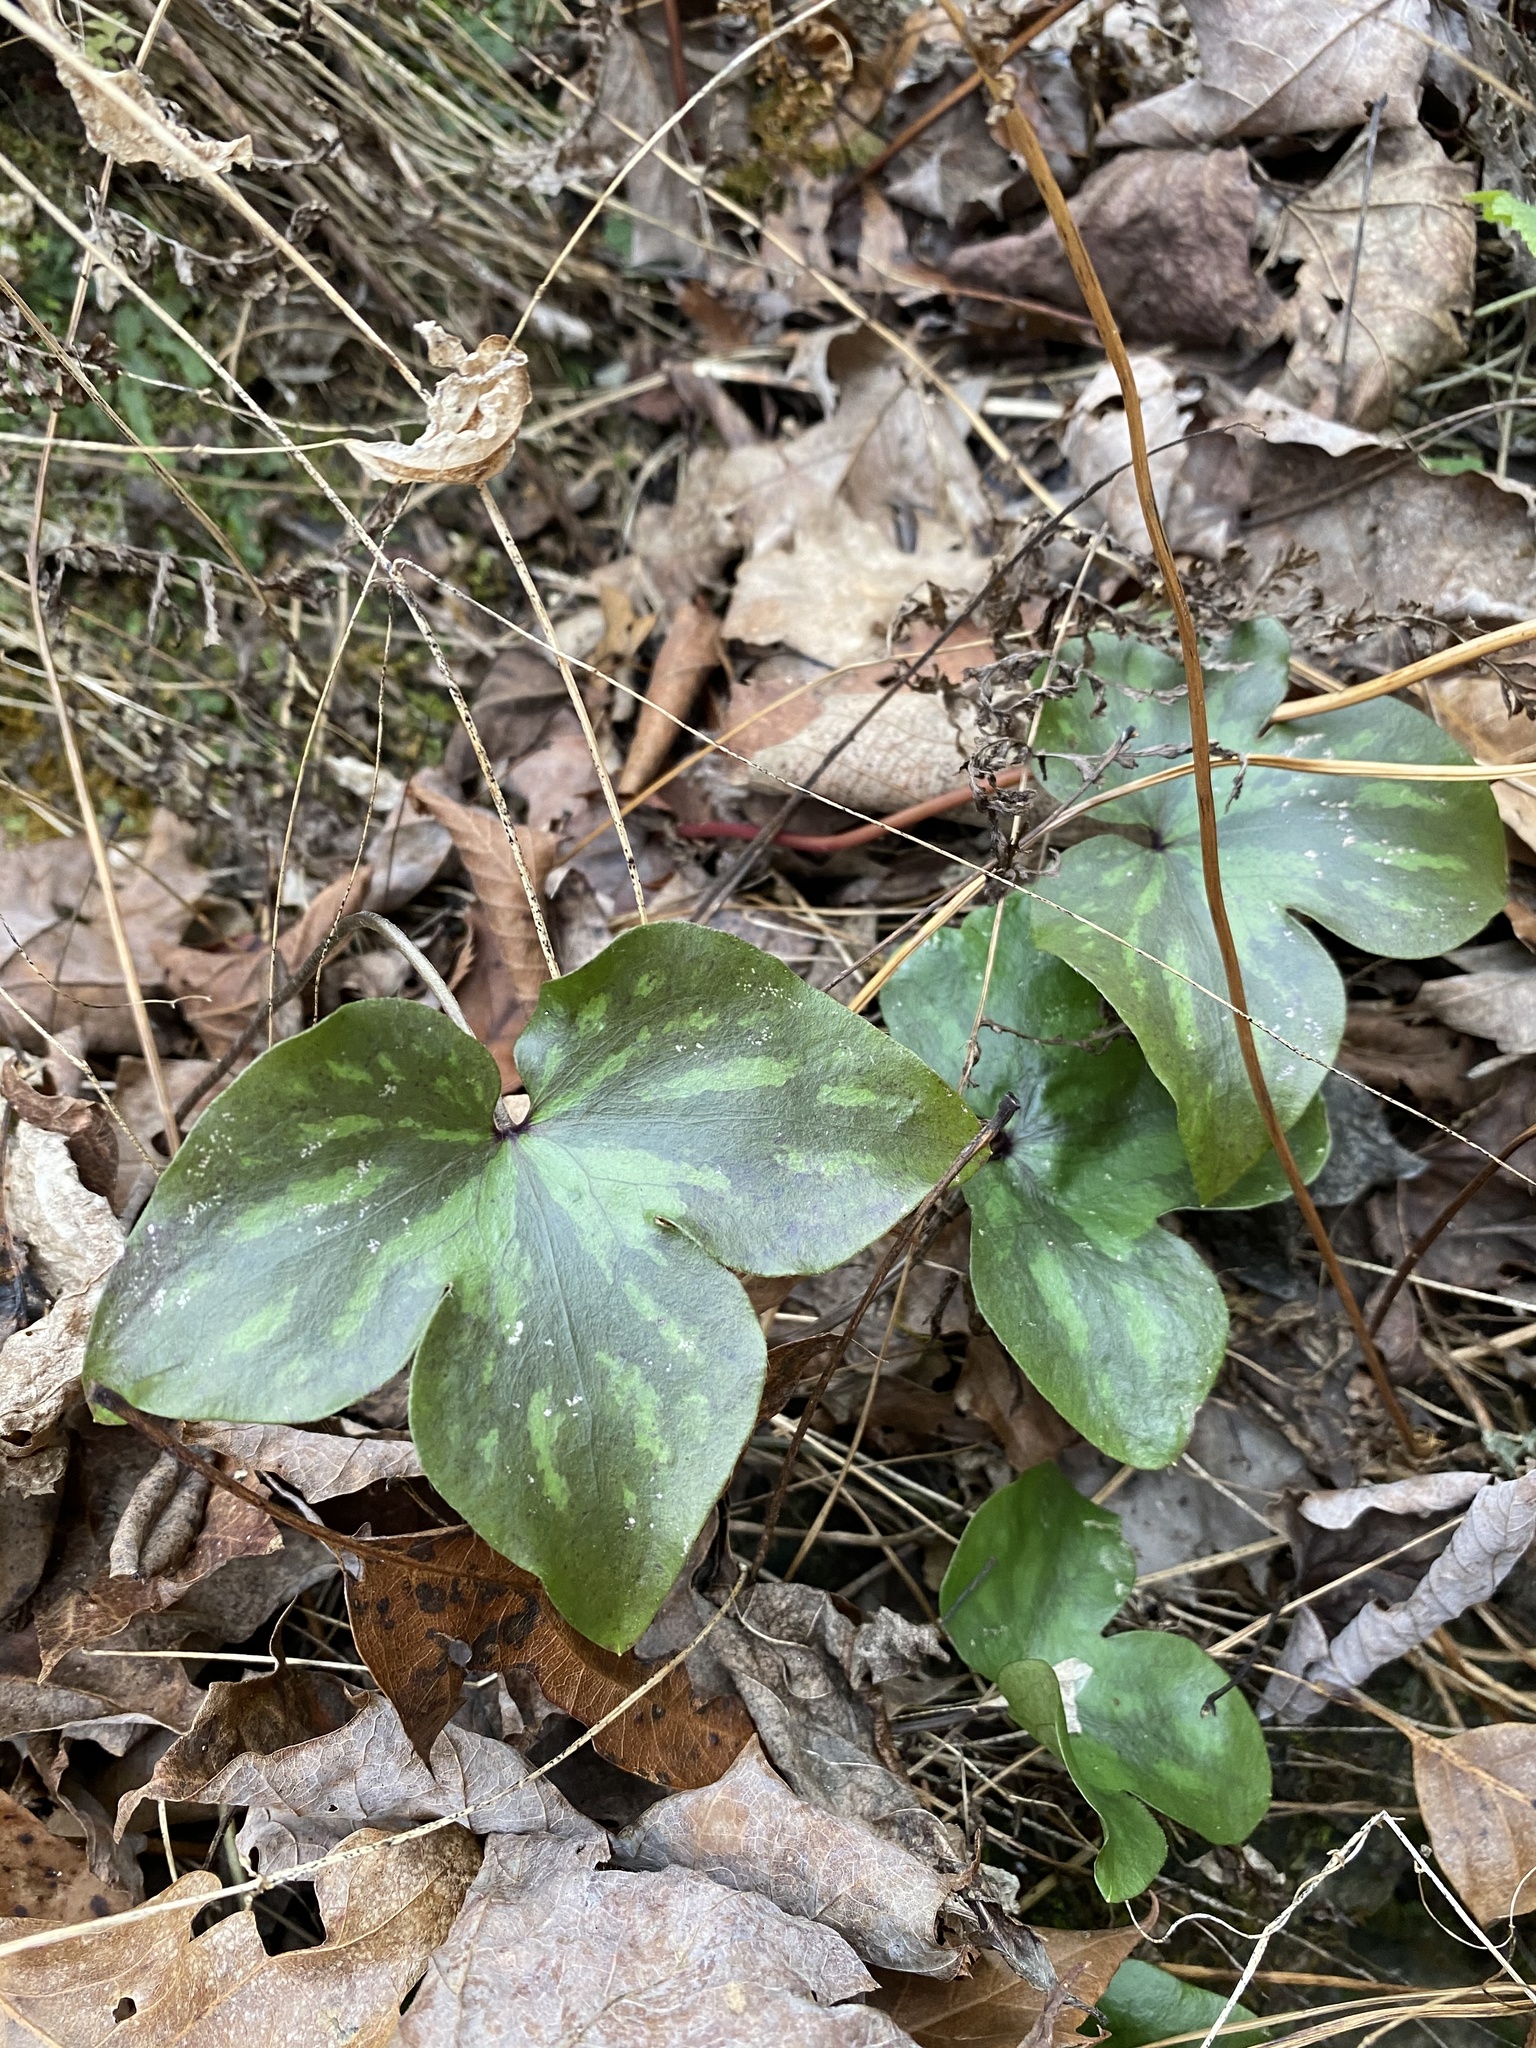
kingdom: Plantae
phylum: Tracheophyta
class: Magnoliopsida
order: Ranunculales
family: Ranunculaceae
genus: Hepatica
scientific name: Hepatica acutiloba
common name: Sharp-lobed hepatica
